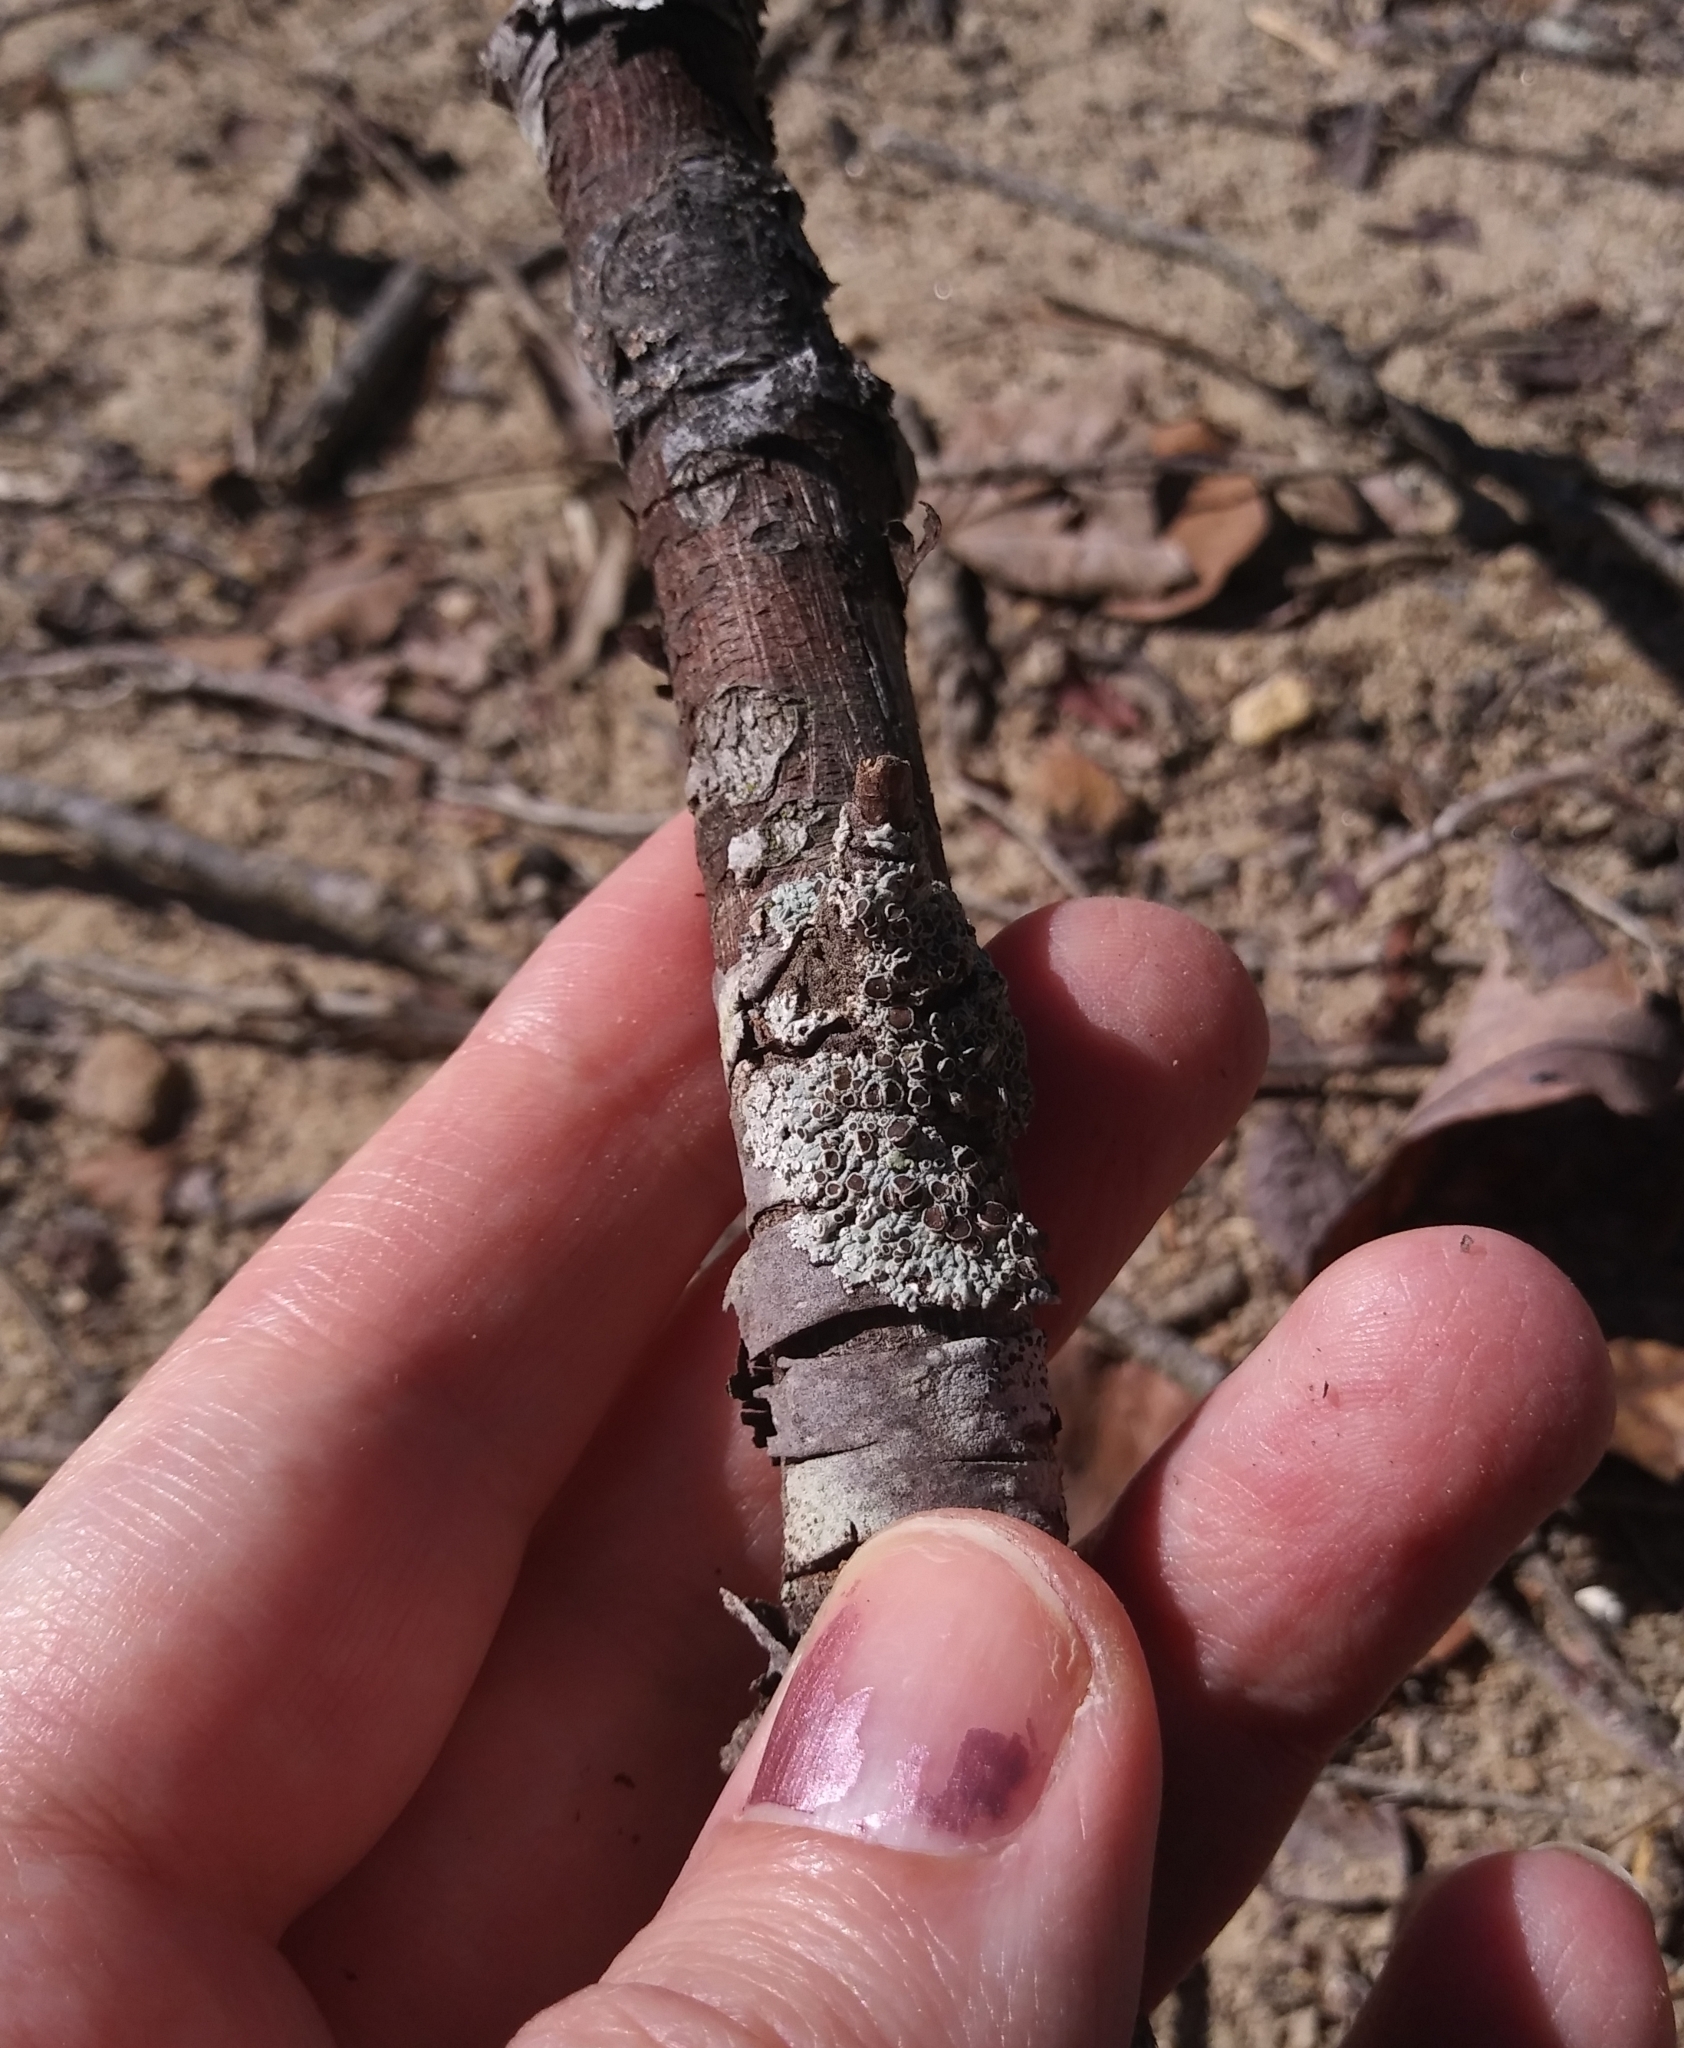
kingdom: Fungi
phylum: Ascomycota
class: Lecanoromycetes
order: Caliciales
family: Physciaceae
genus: Physcia
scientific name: Physcia stellaris
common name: Star rosette lichen
